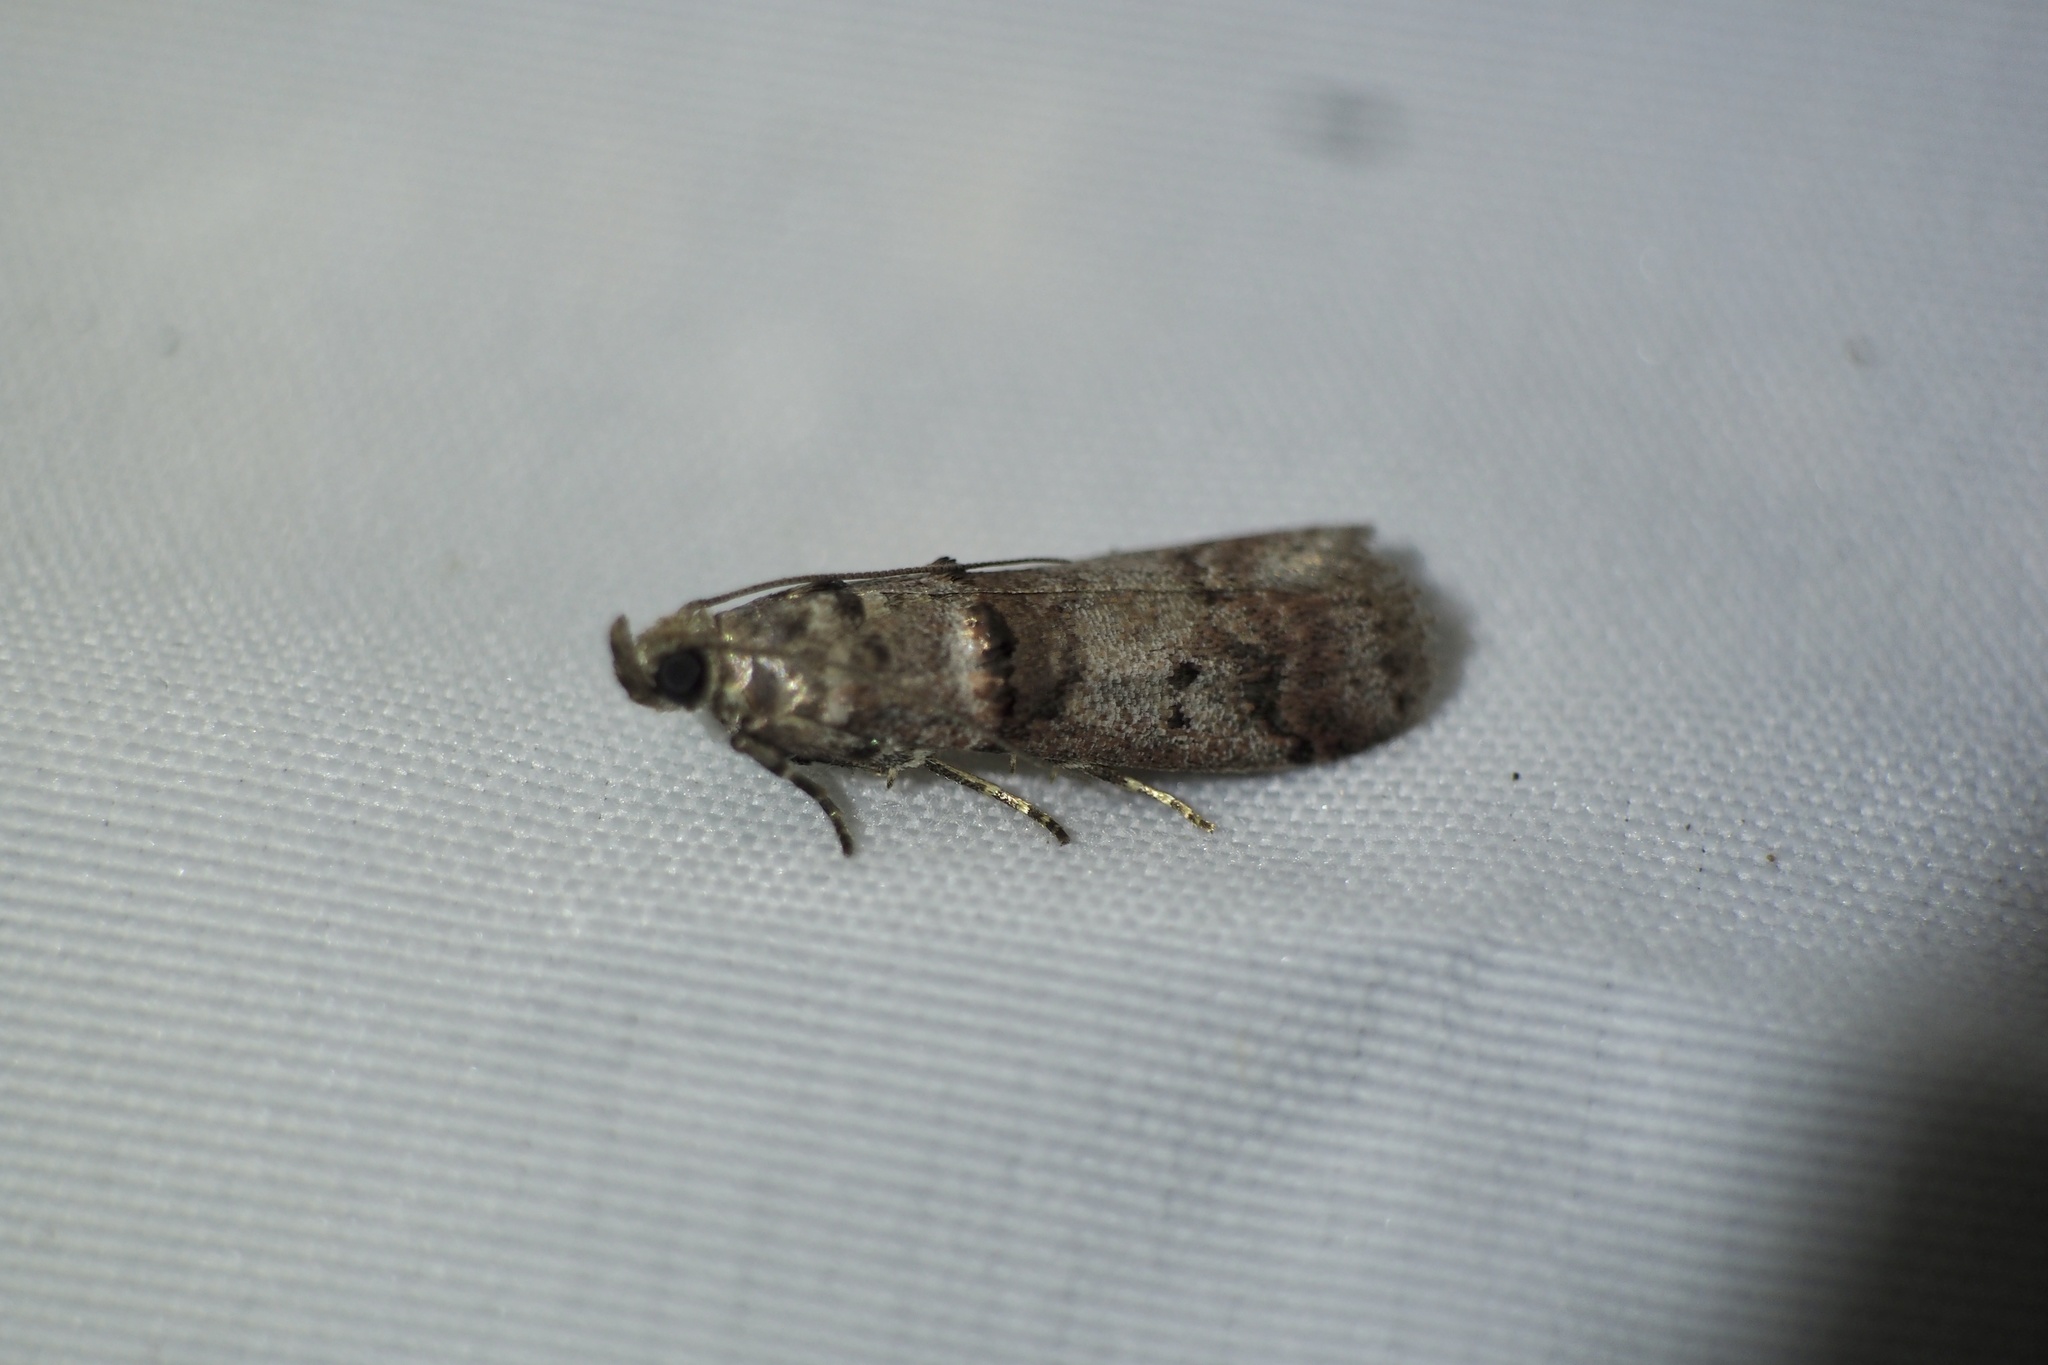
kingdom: Animalia
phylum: Arthropoda
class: Insecta
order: Lepidoptera
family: Pyralidae
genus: Acrobasis
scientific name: Acrobasis
